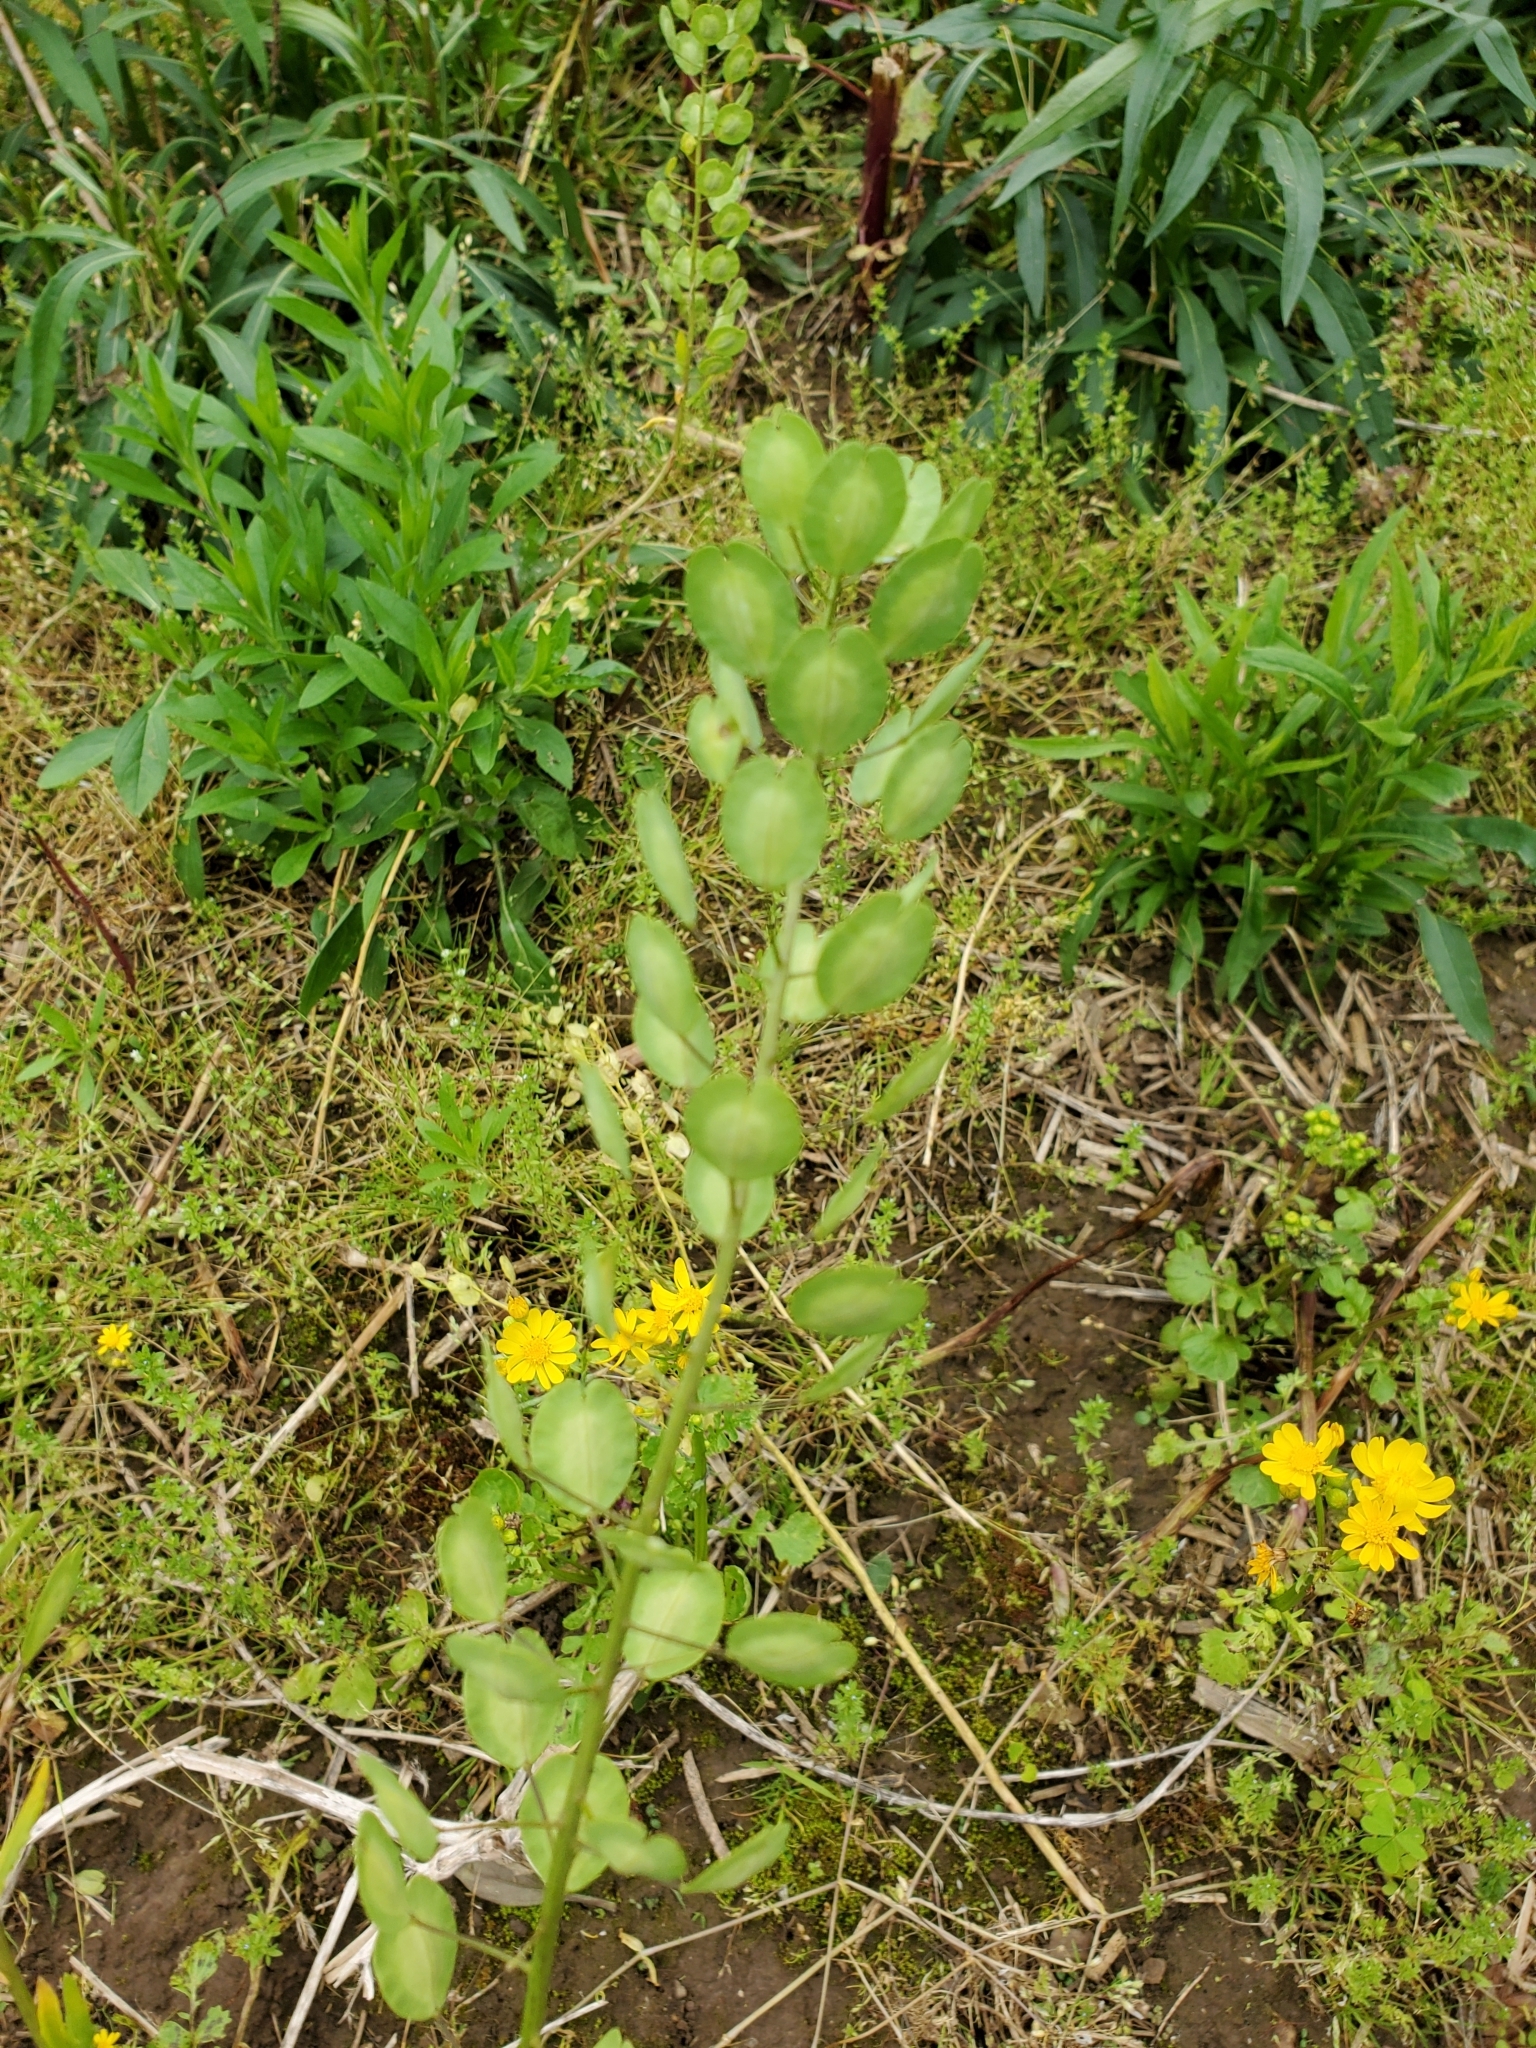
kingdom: Plantae
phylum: Tracheophyta
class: Magnoliopsida
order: Brassicales
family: Brassicaceae
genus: Thlaspi
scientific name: Thlaspi arvense
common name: Field pennycress
